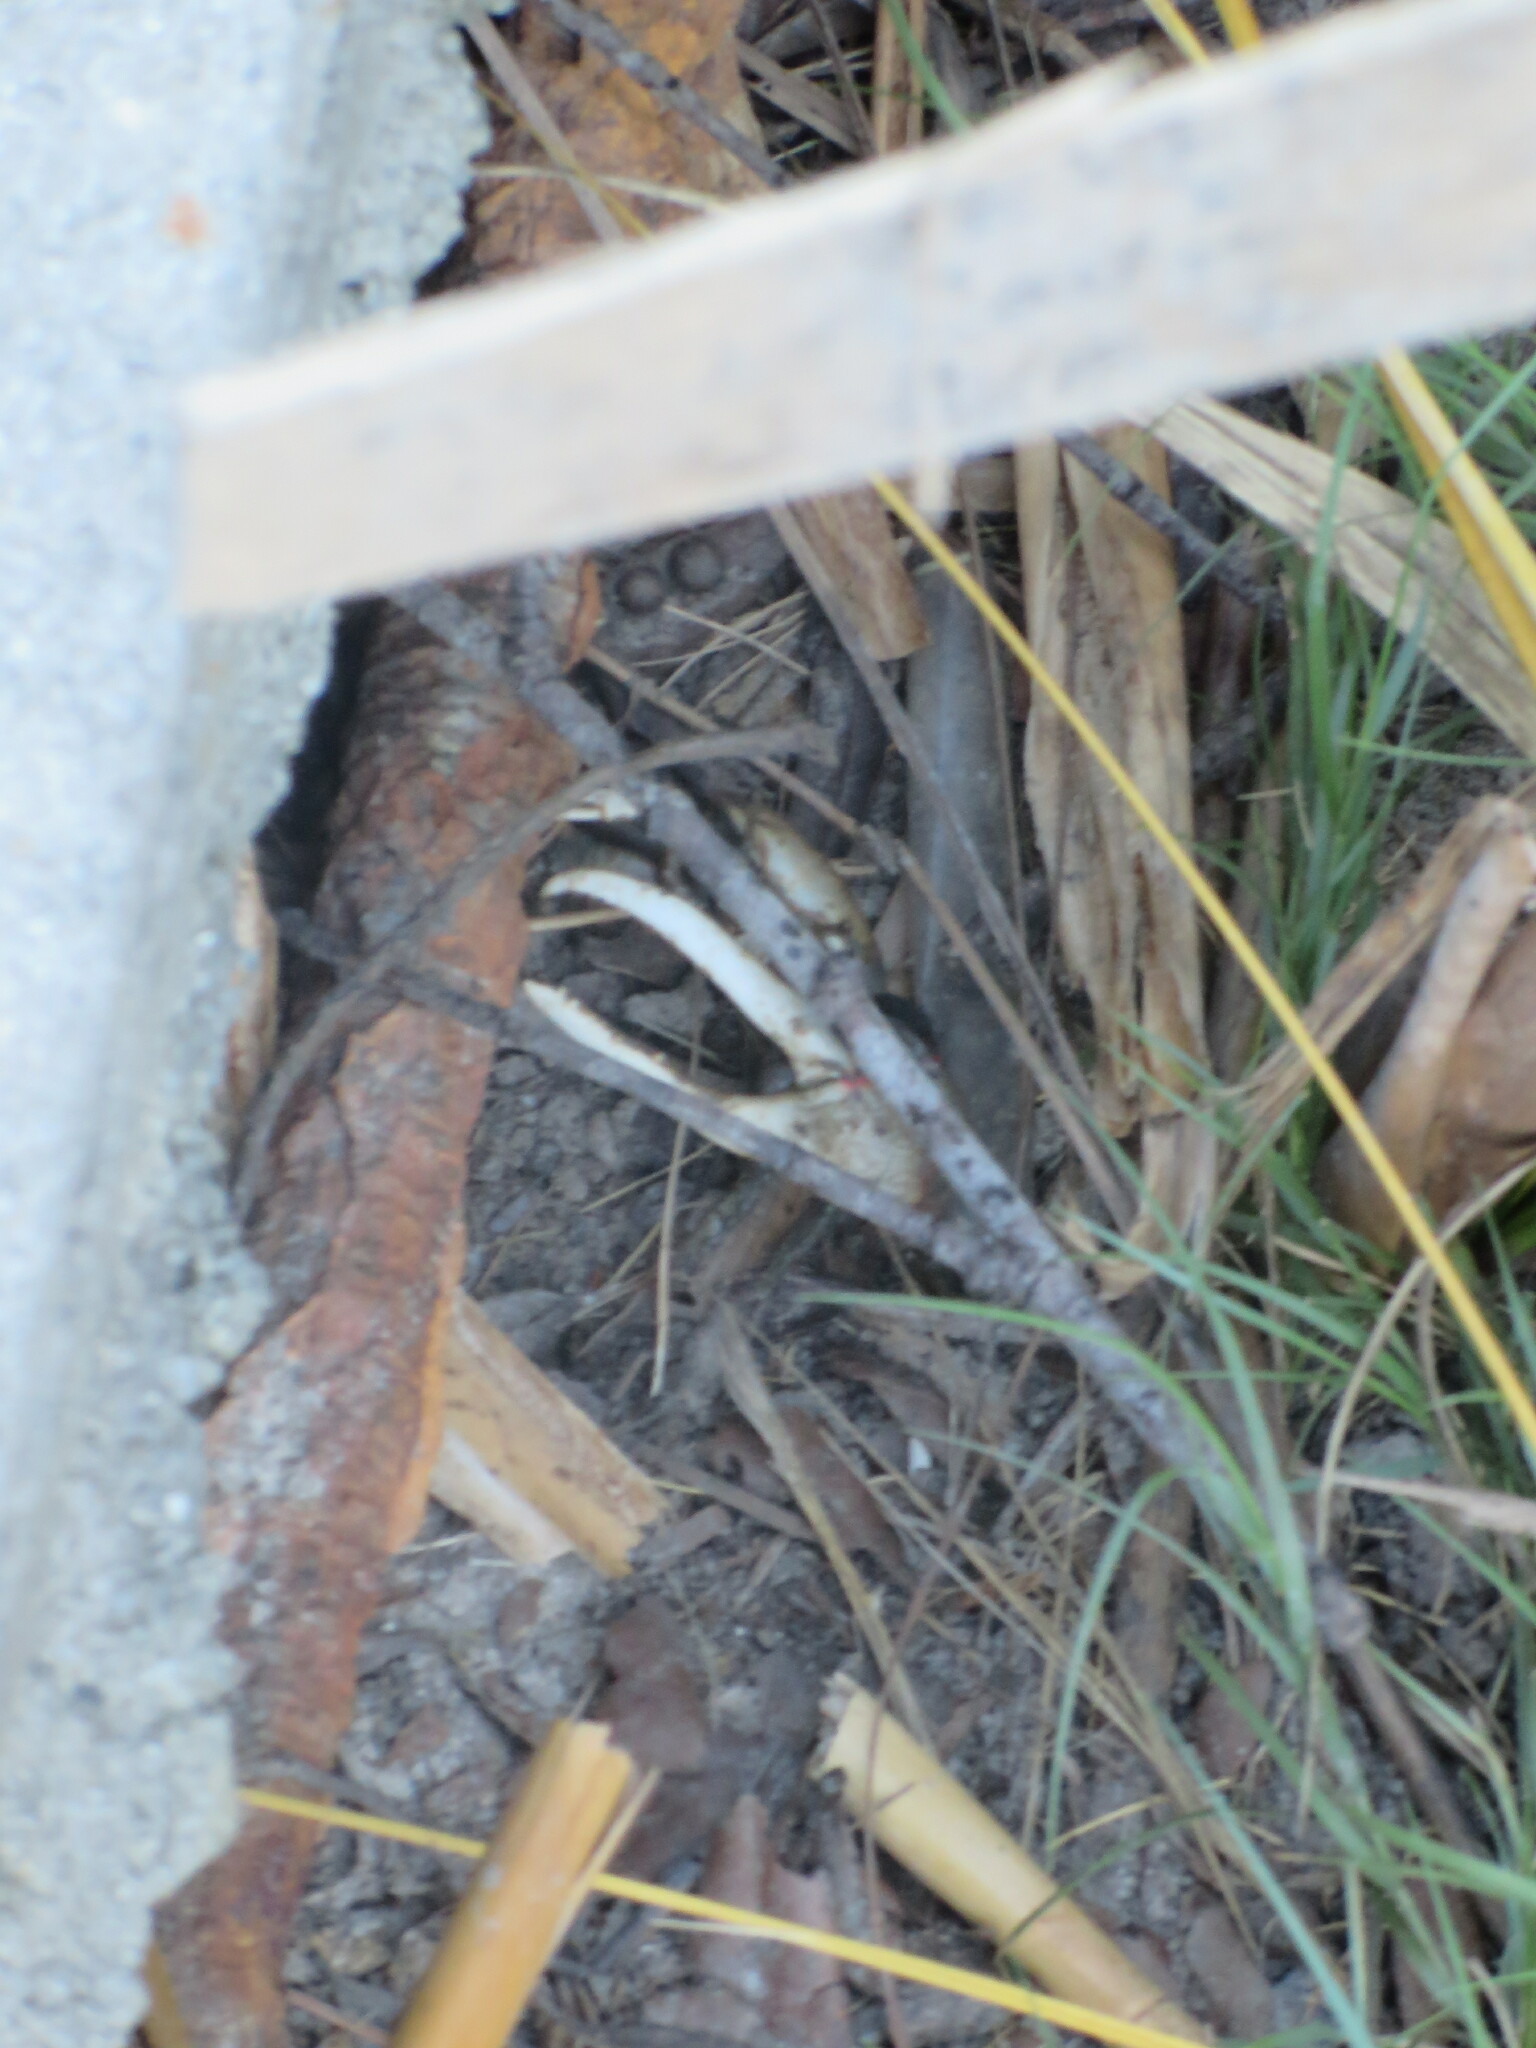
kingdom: Animalia
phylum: Arthropoda
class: Malacostraca
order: Decapoda
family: Ocypodidae
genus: Minuca
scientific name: Minuca minax
